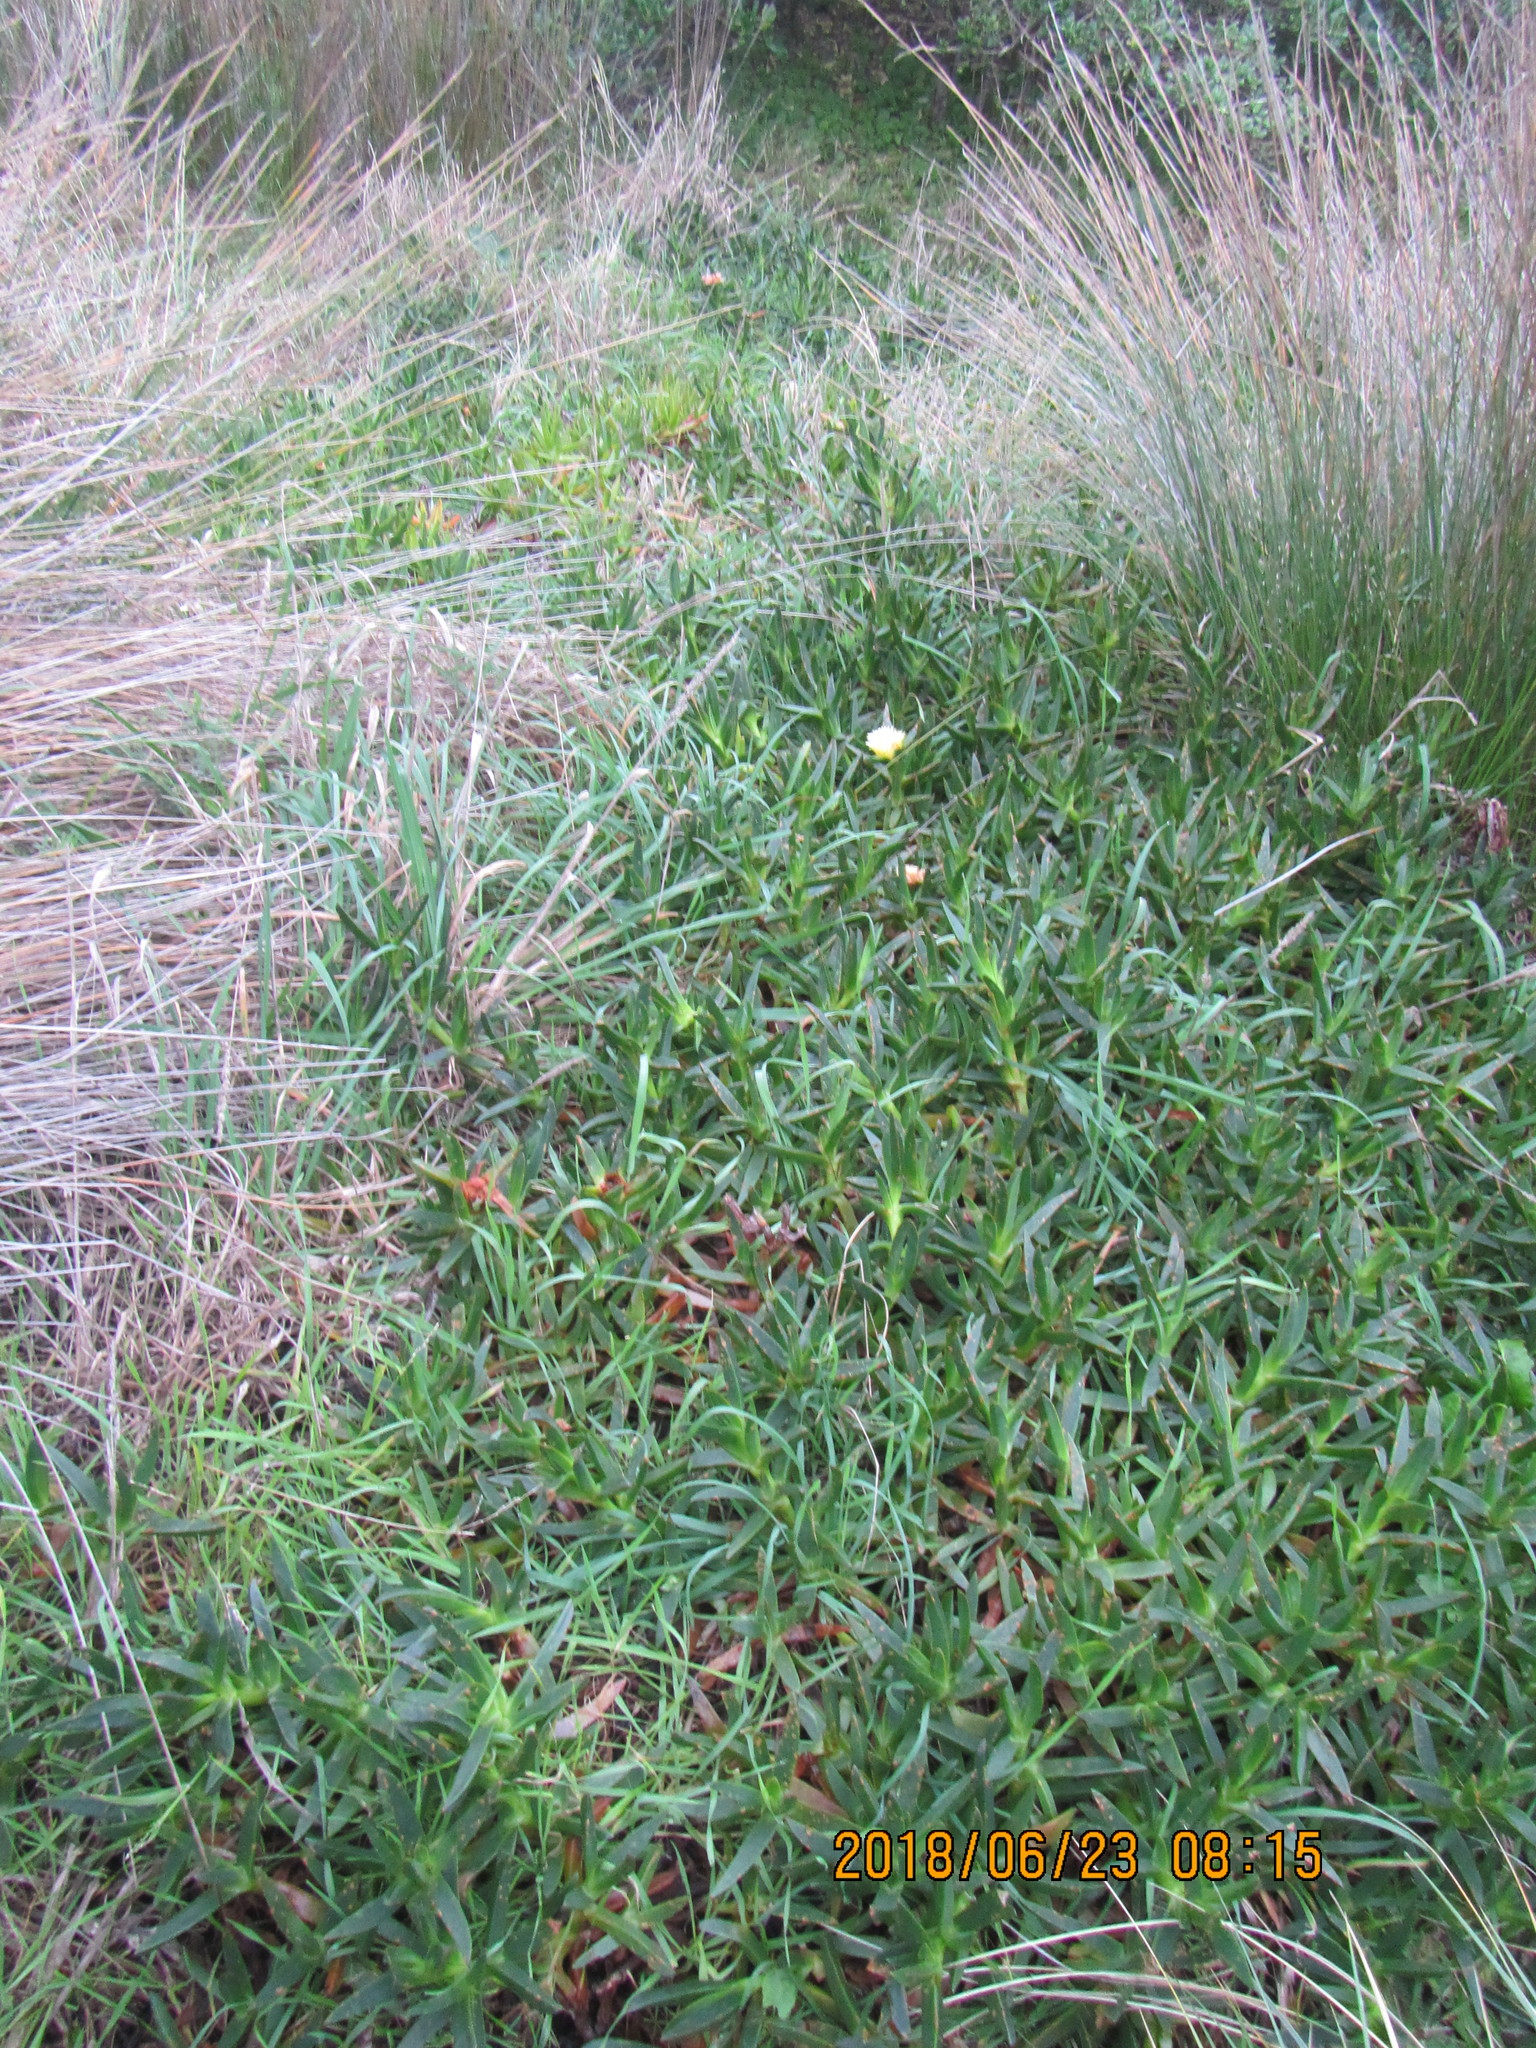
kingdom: Plantae
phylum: Tracheophyta
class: Magnoliopsida
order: Caryophyllales
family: Aizoaceae
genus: Carpobrotus
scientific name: Carpobrotus edulis
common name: Hottentot-fig
